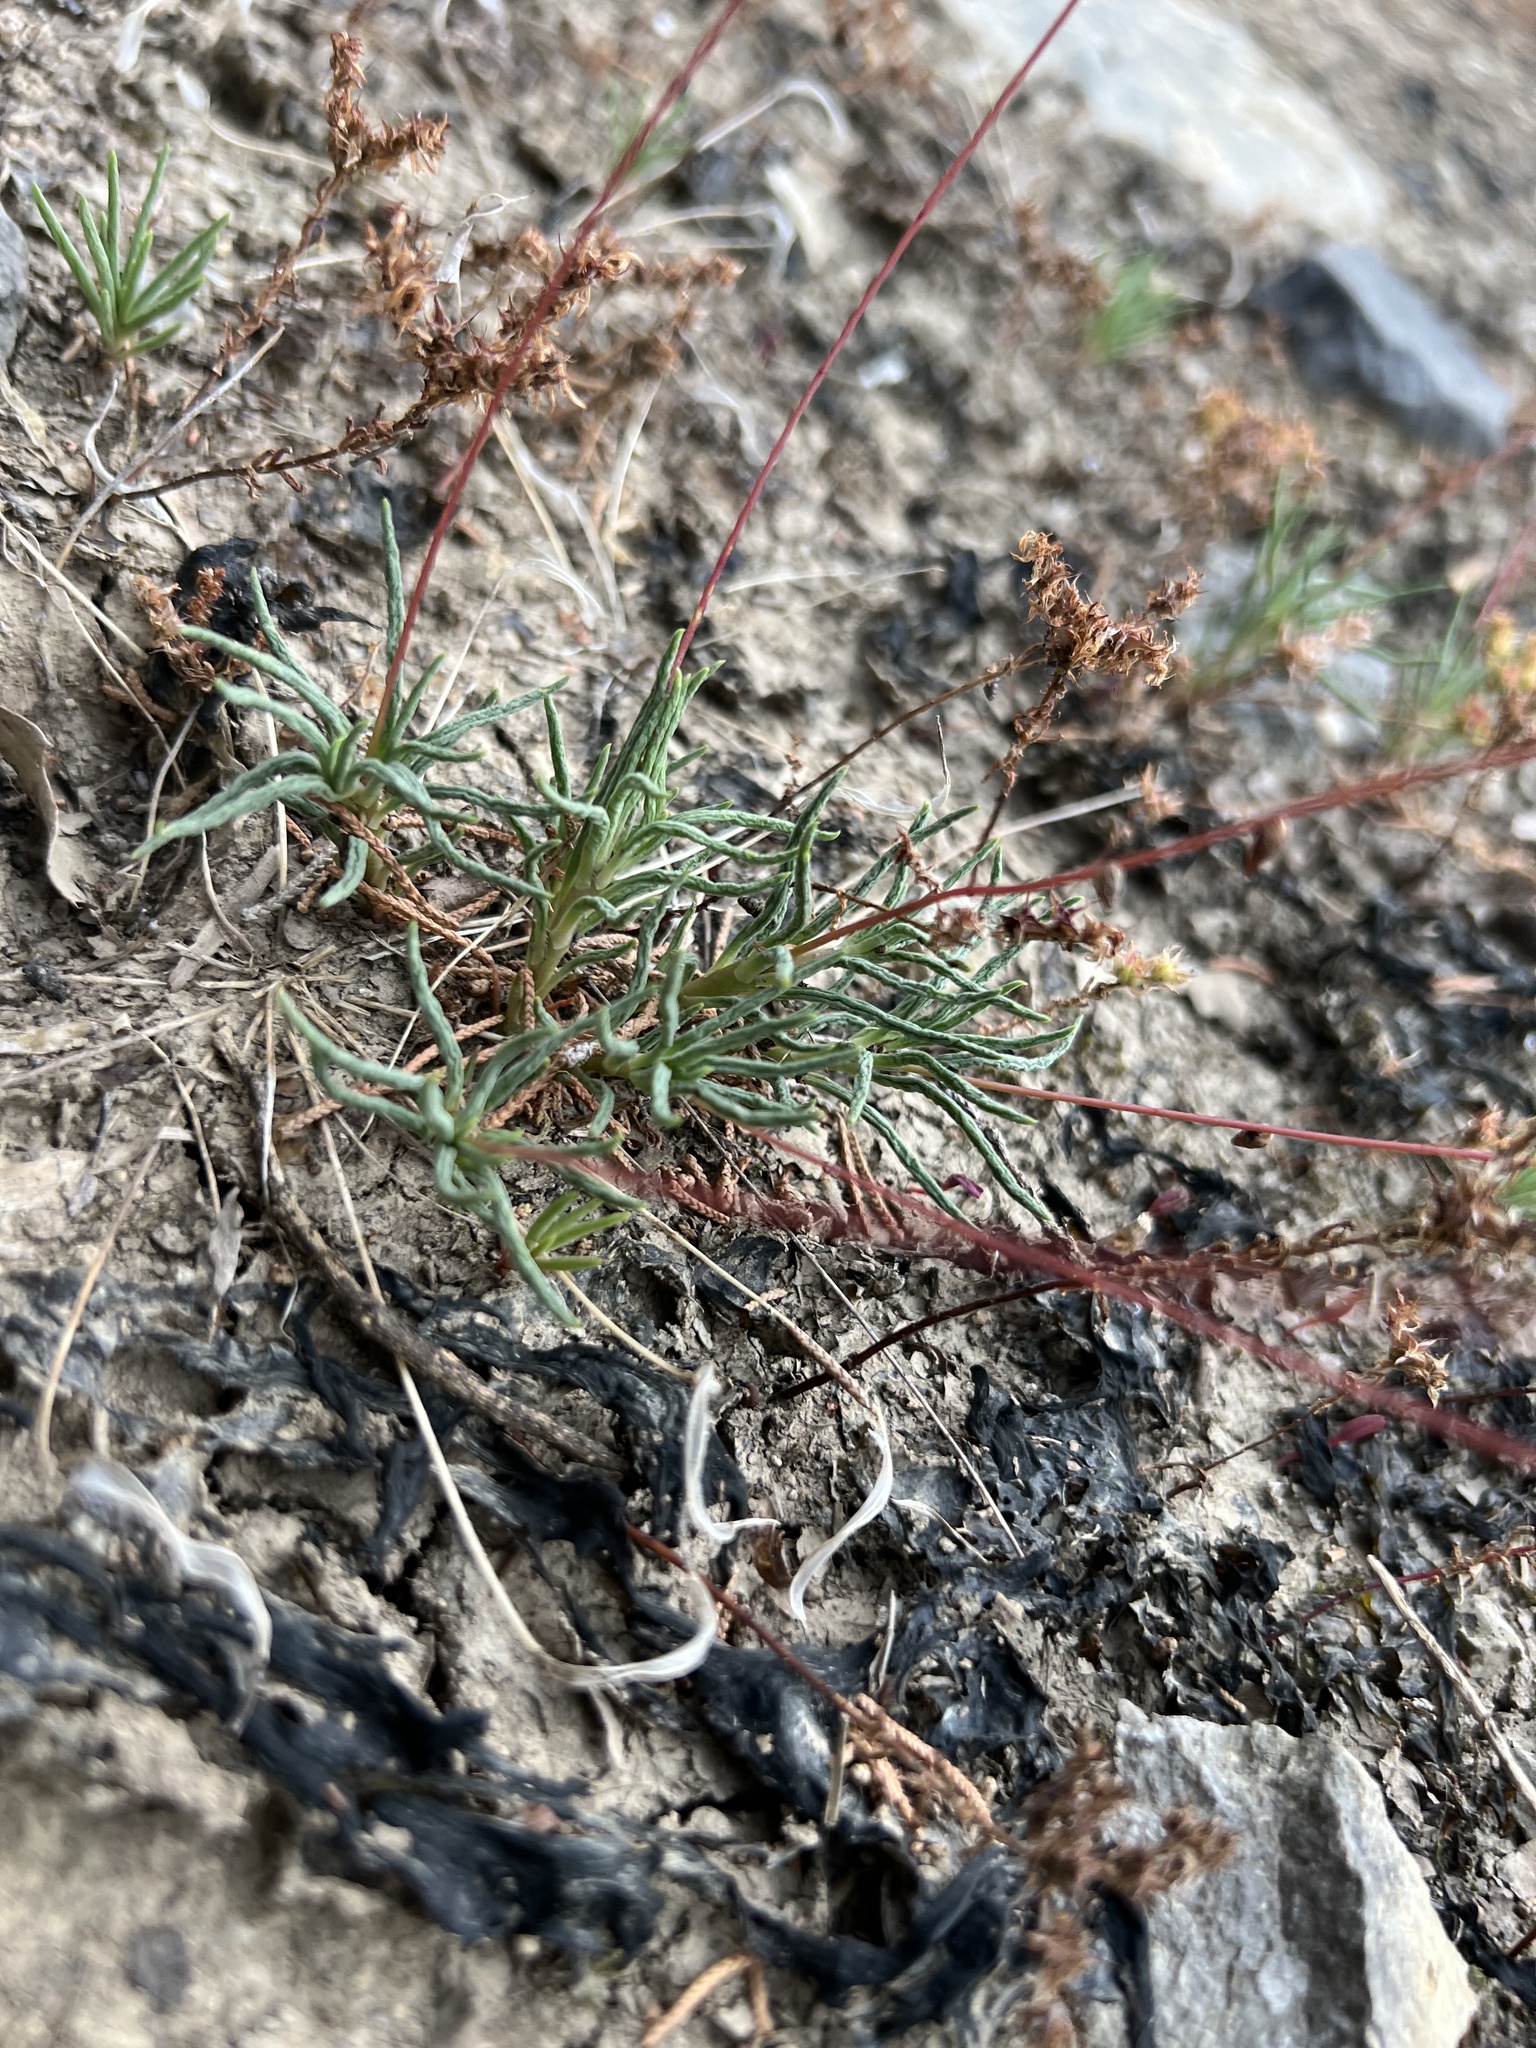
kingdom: Plantae
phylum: Tracheophyta
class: Magnoliopsida
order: Caryophyllales
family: Montiaceae
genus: Phemeranthus
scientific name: Phemeranthus calcaricus
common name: Limestone fameflower
